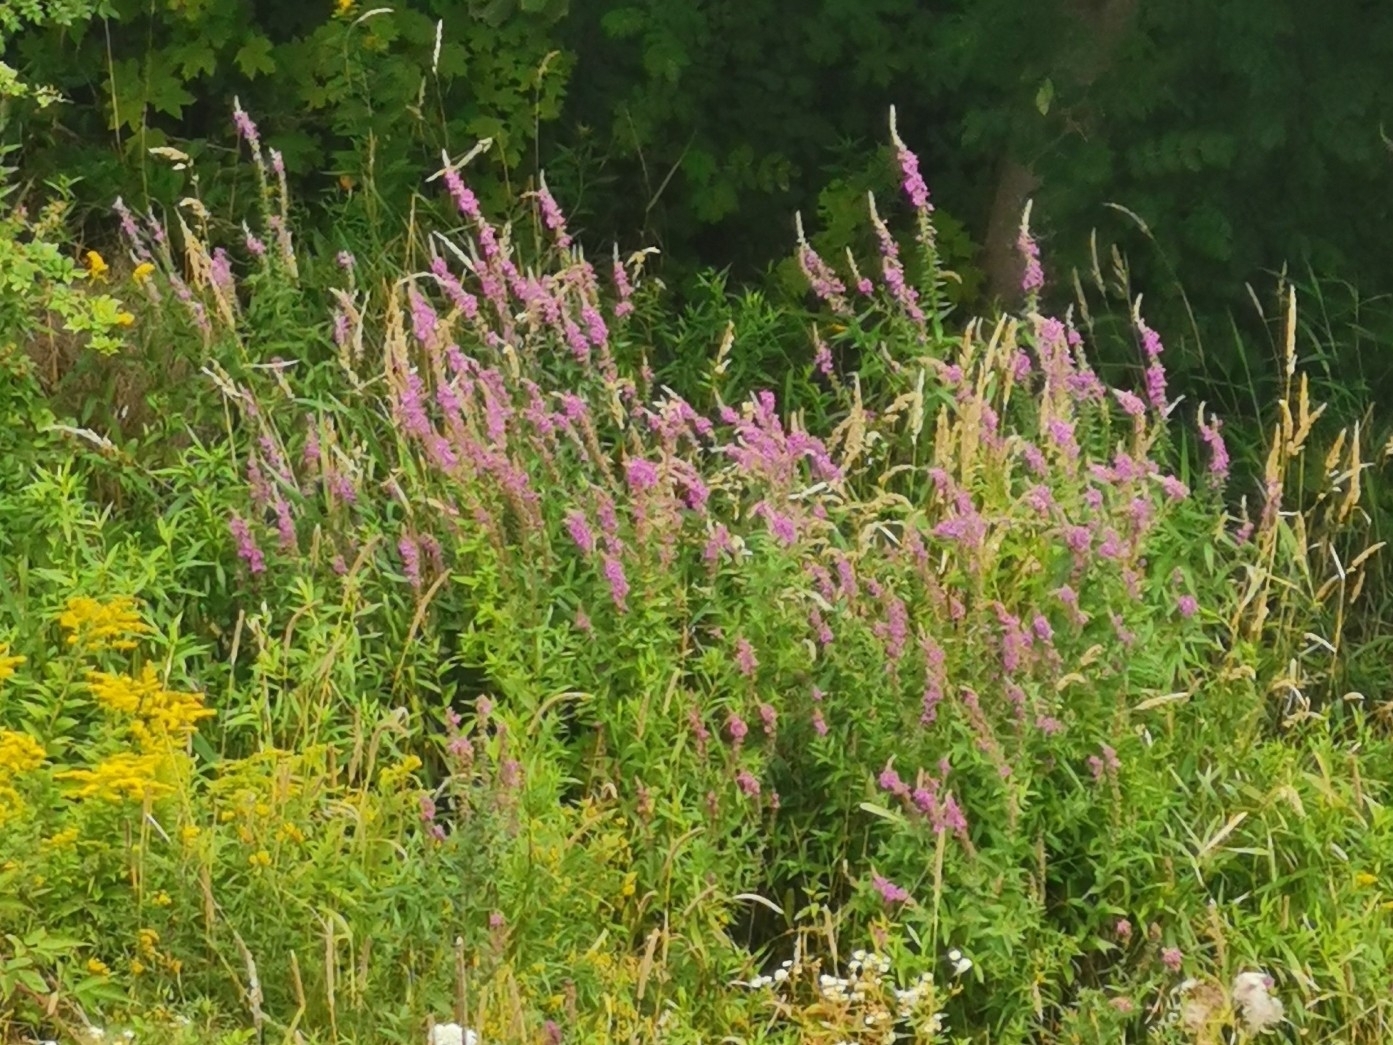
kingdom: Plantae
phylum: Tracheophyta
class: Magnoliopsida
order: Myrtales
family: Lythraceae
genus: Lythrum
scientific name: Lythrum salicaria
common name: Purple loosestrife
